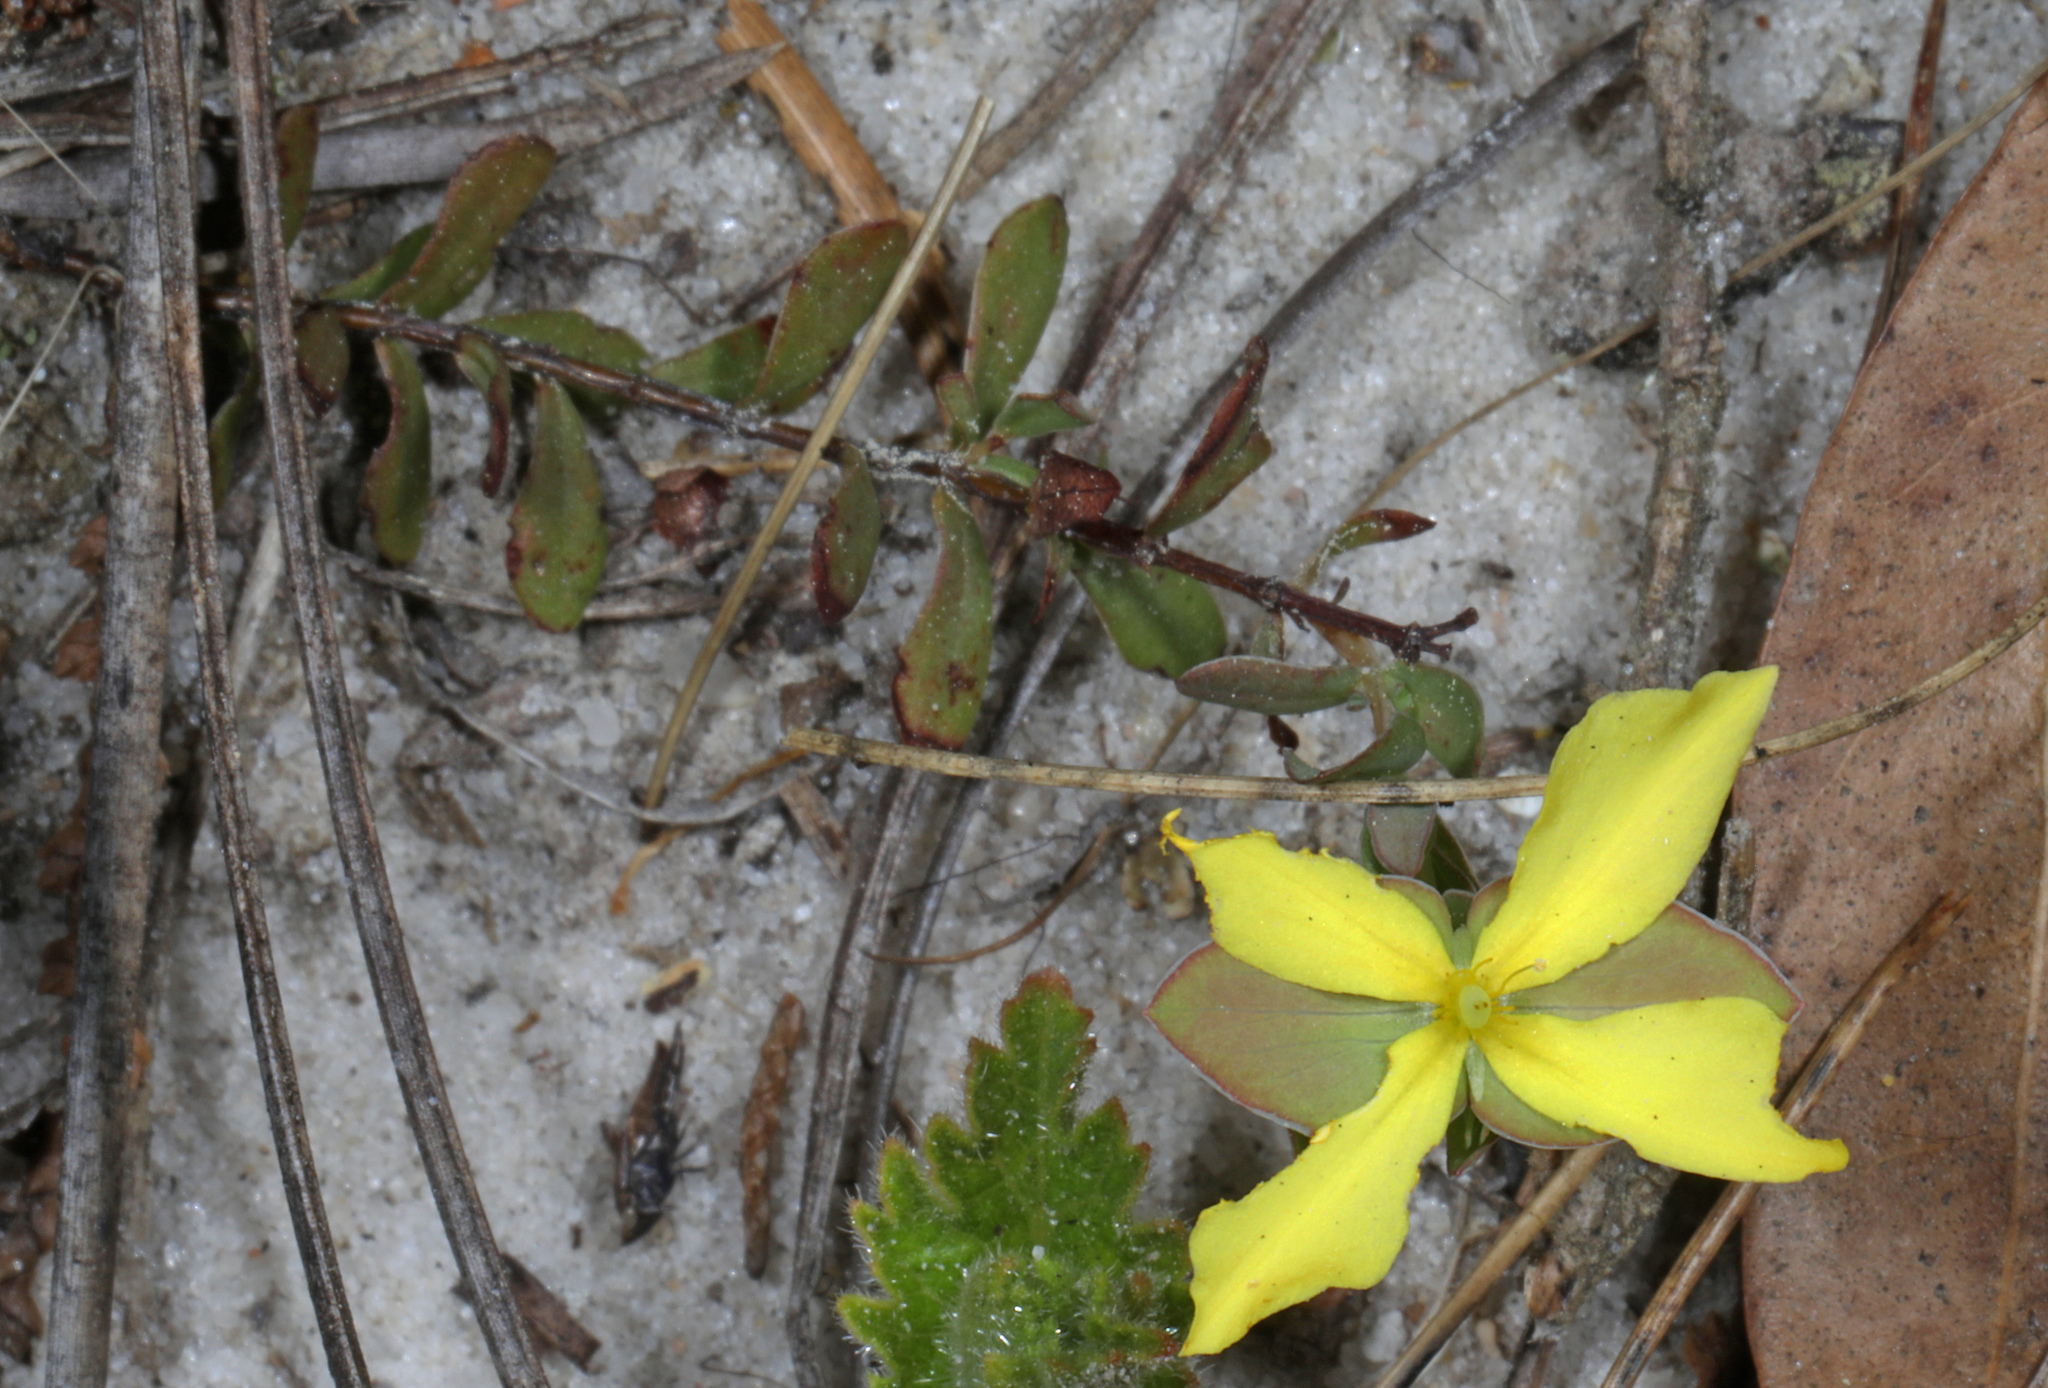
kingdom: Plantae
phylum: Tracheophyta
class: Magnoliopsida
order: Malpighiales
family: Hypericaceae
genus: Hypericum
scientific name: Hypericum suffruticosum
